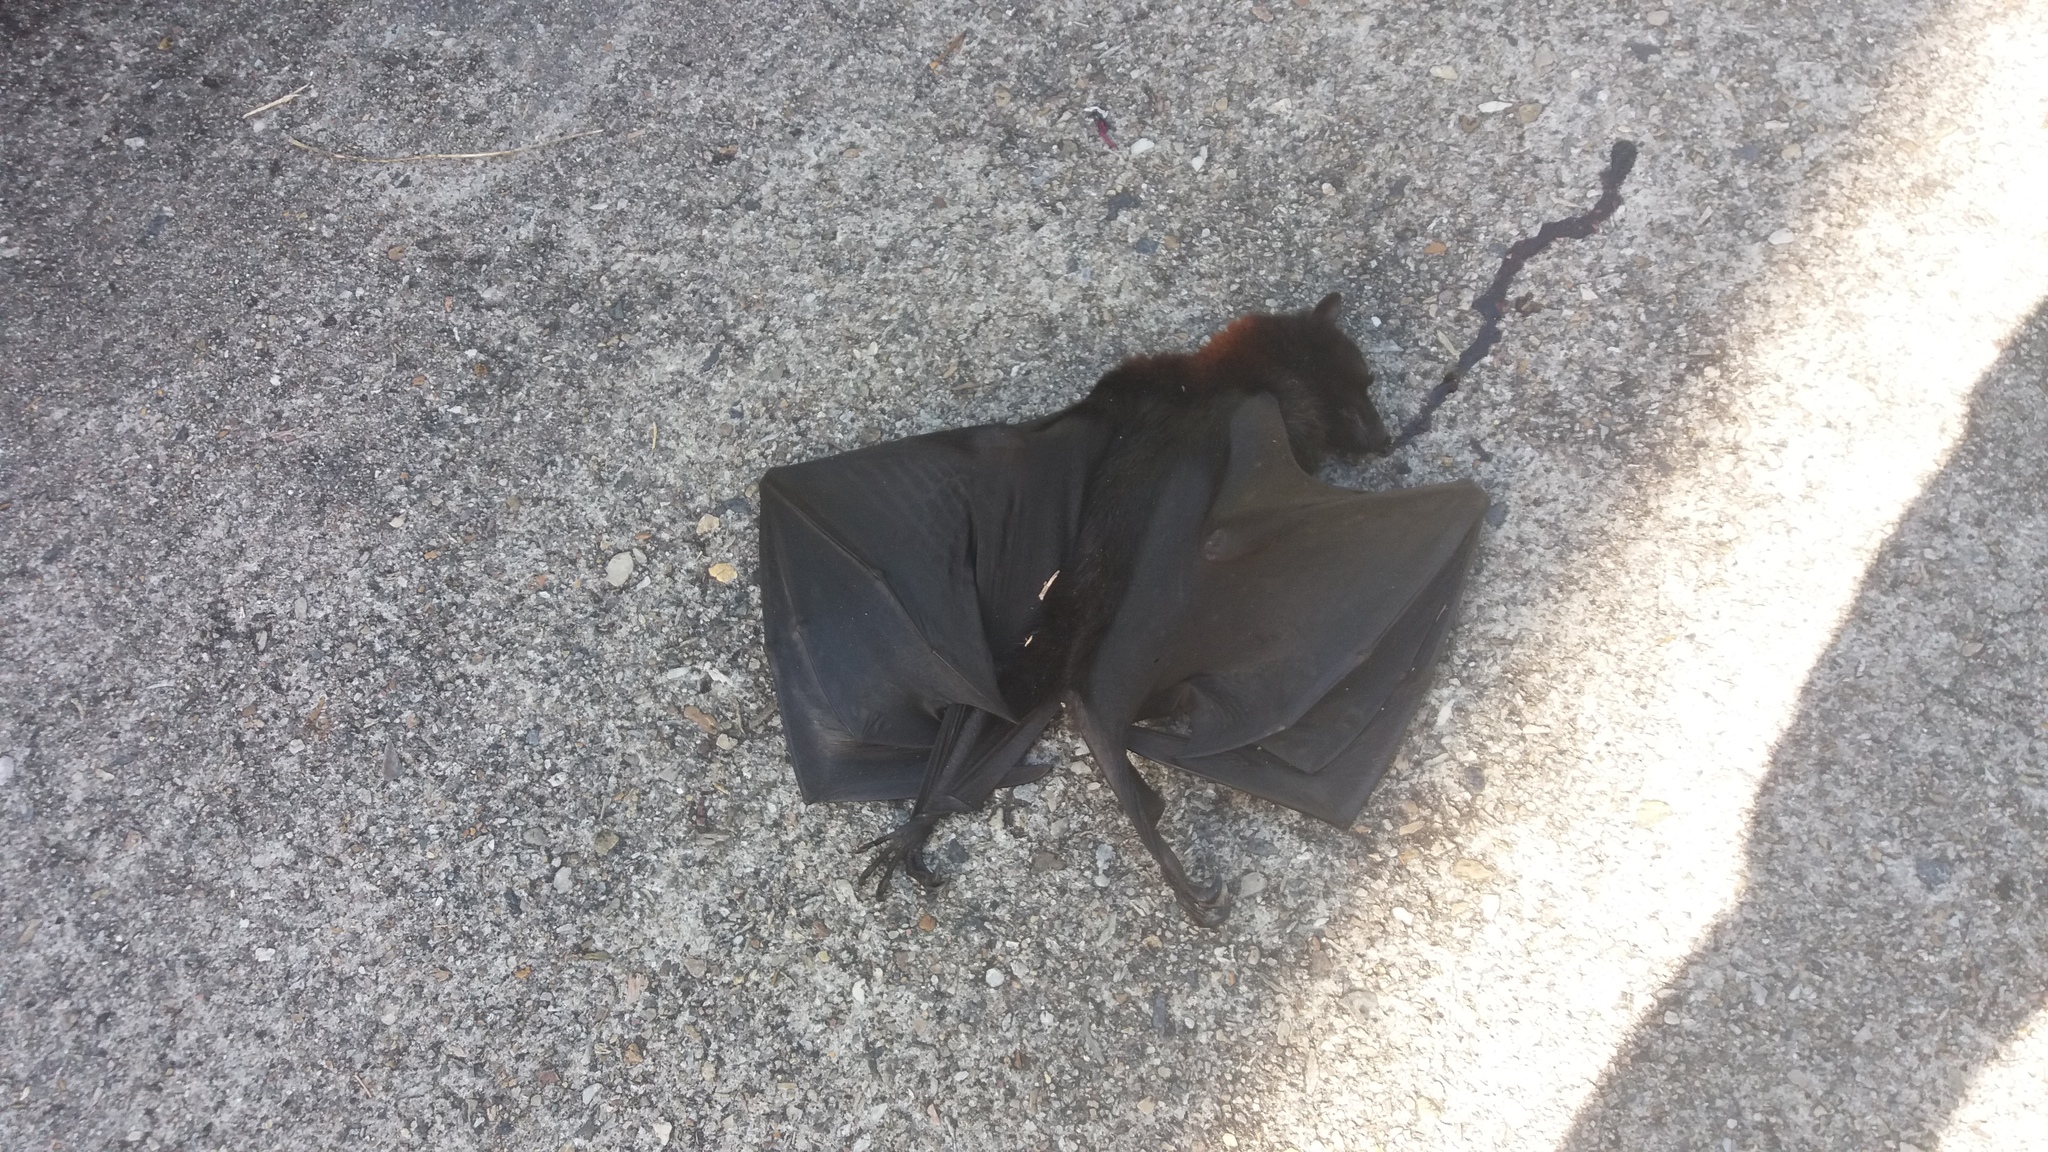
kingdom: Animalia
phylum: Chordata
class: Mammalia
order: Chiroptera
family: Pteropodidae
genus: Pteropus
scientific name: Pteropus alecto
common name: Black flying fox
